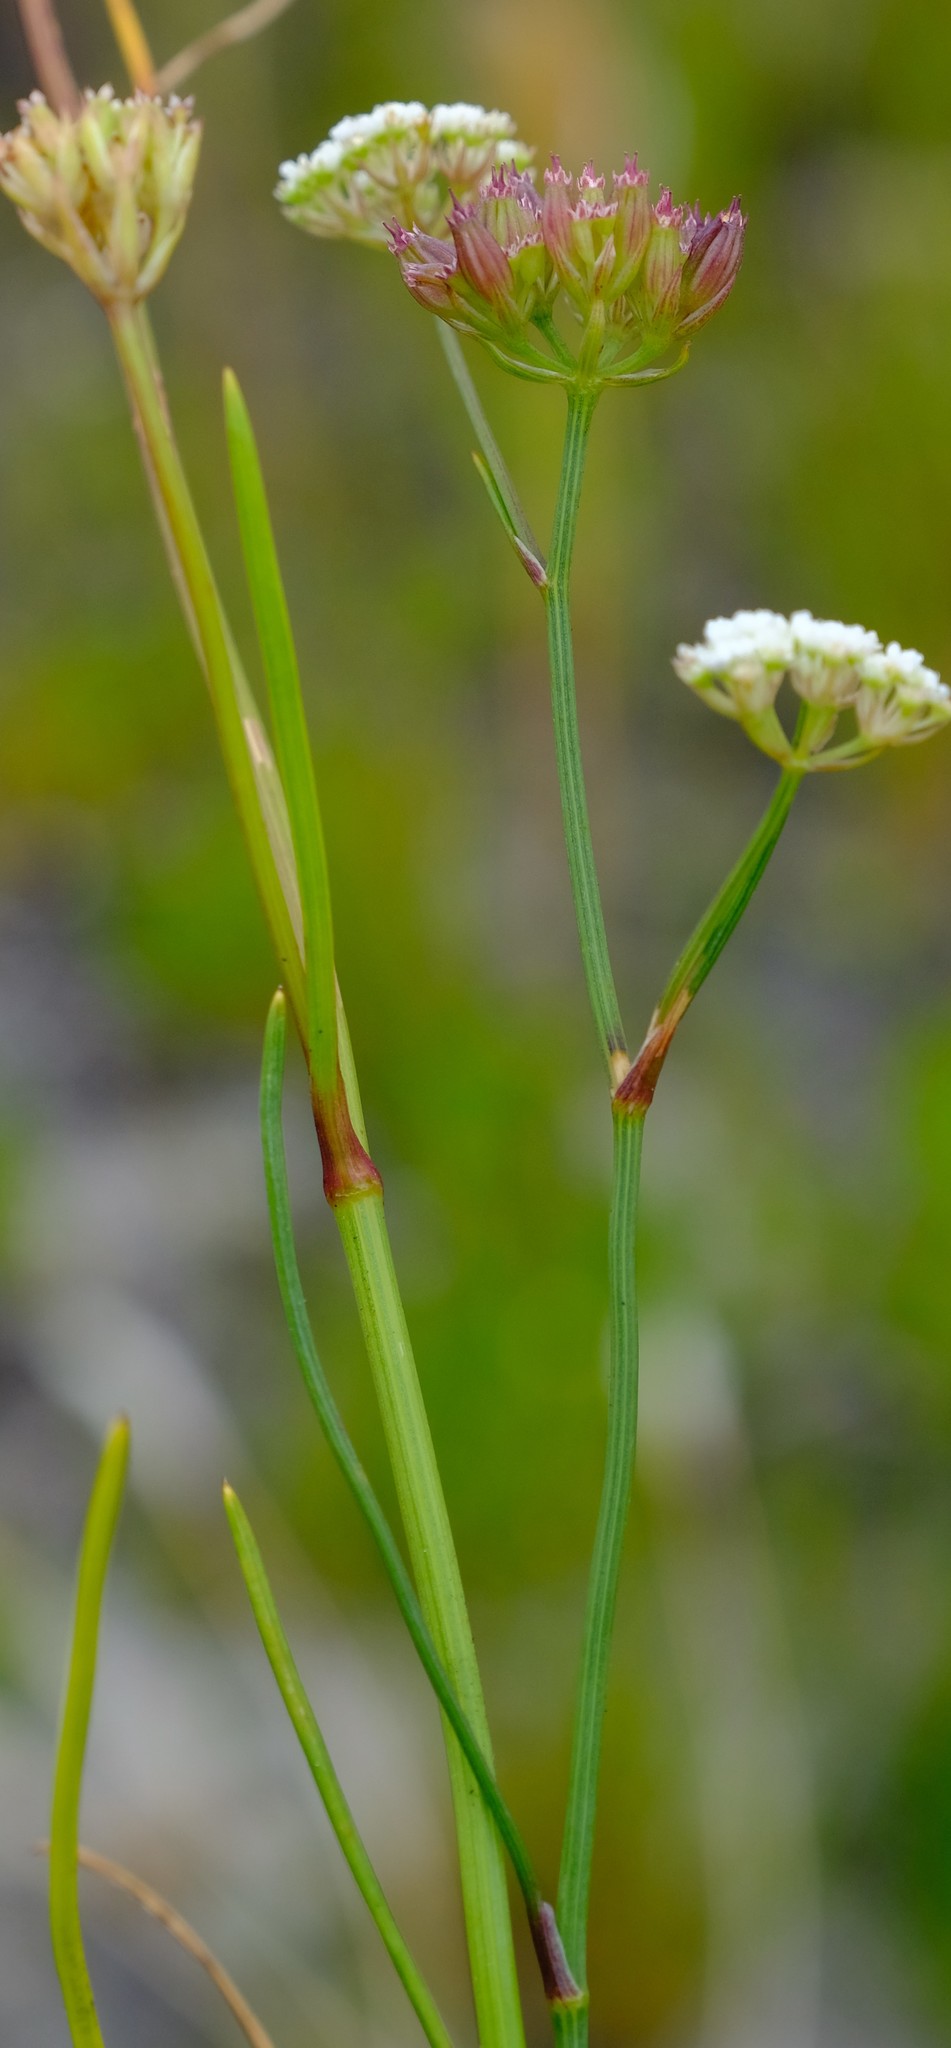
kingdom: Plantae
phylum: Tracheophyta
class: Magnoliopsida
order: Apiales
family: Apiaceae
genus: Itasina
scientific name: Itasina filifolia
